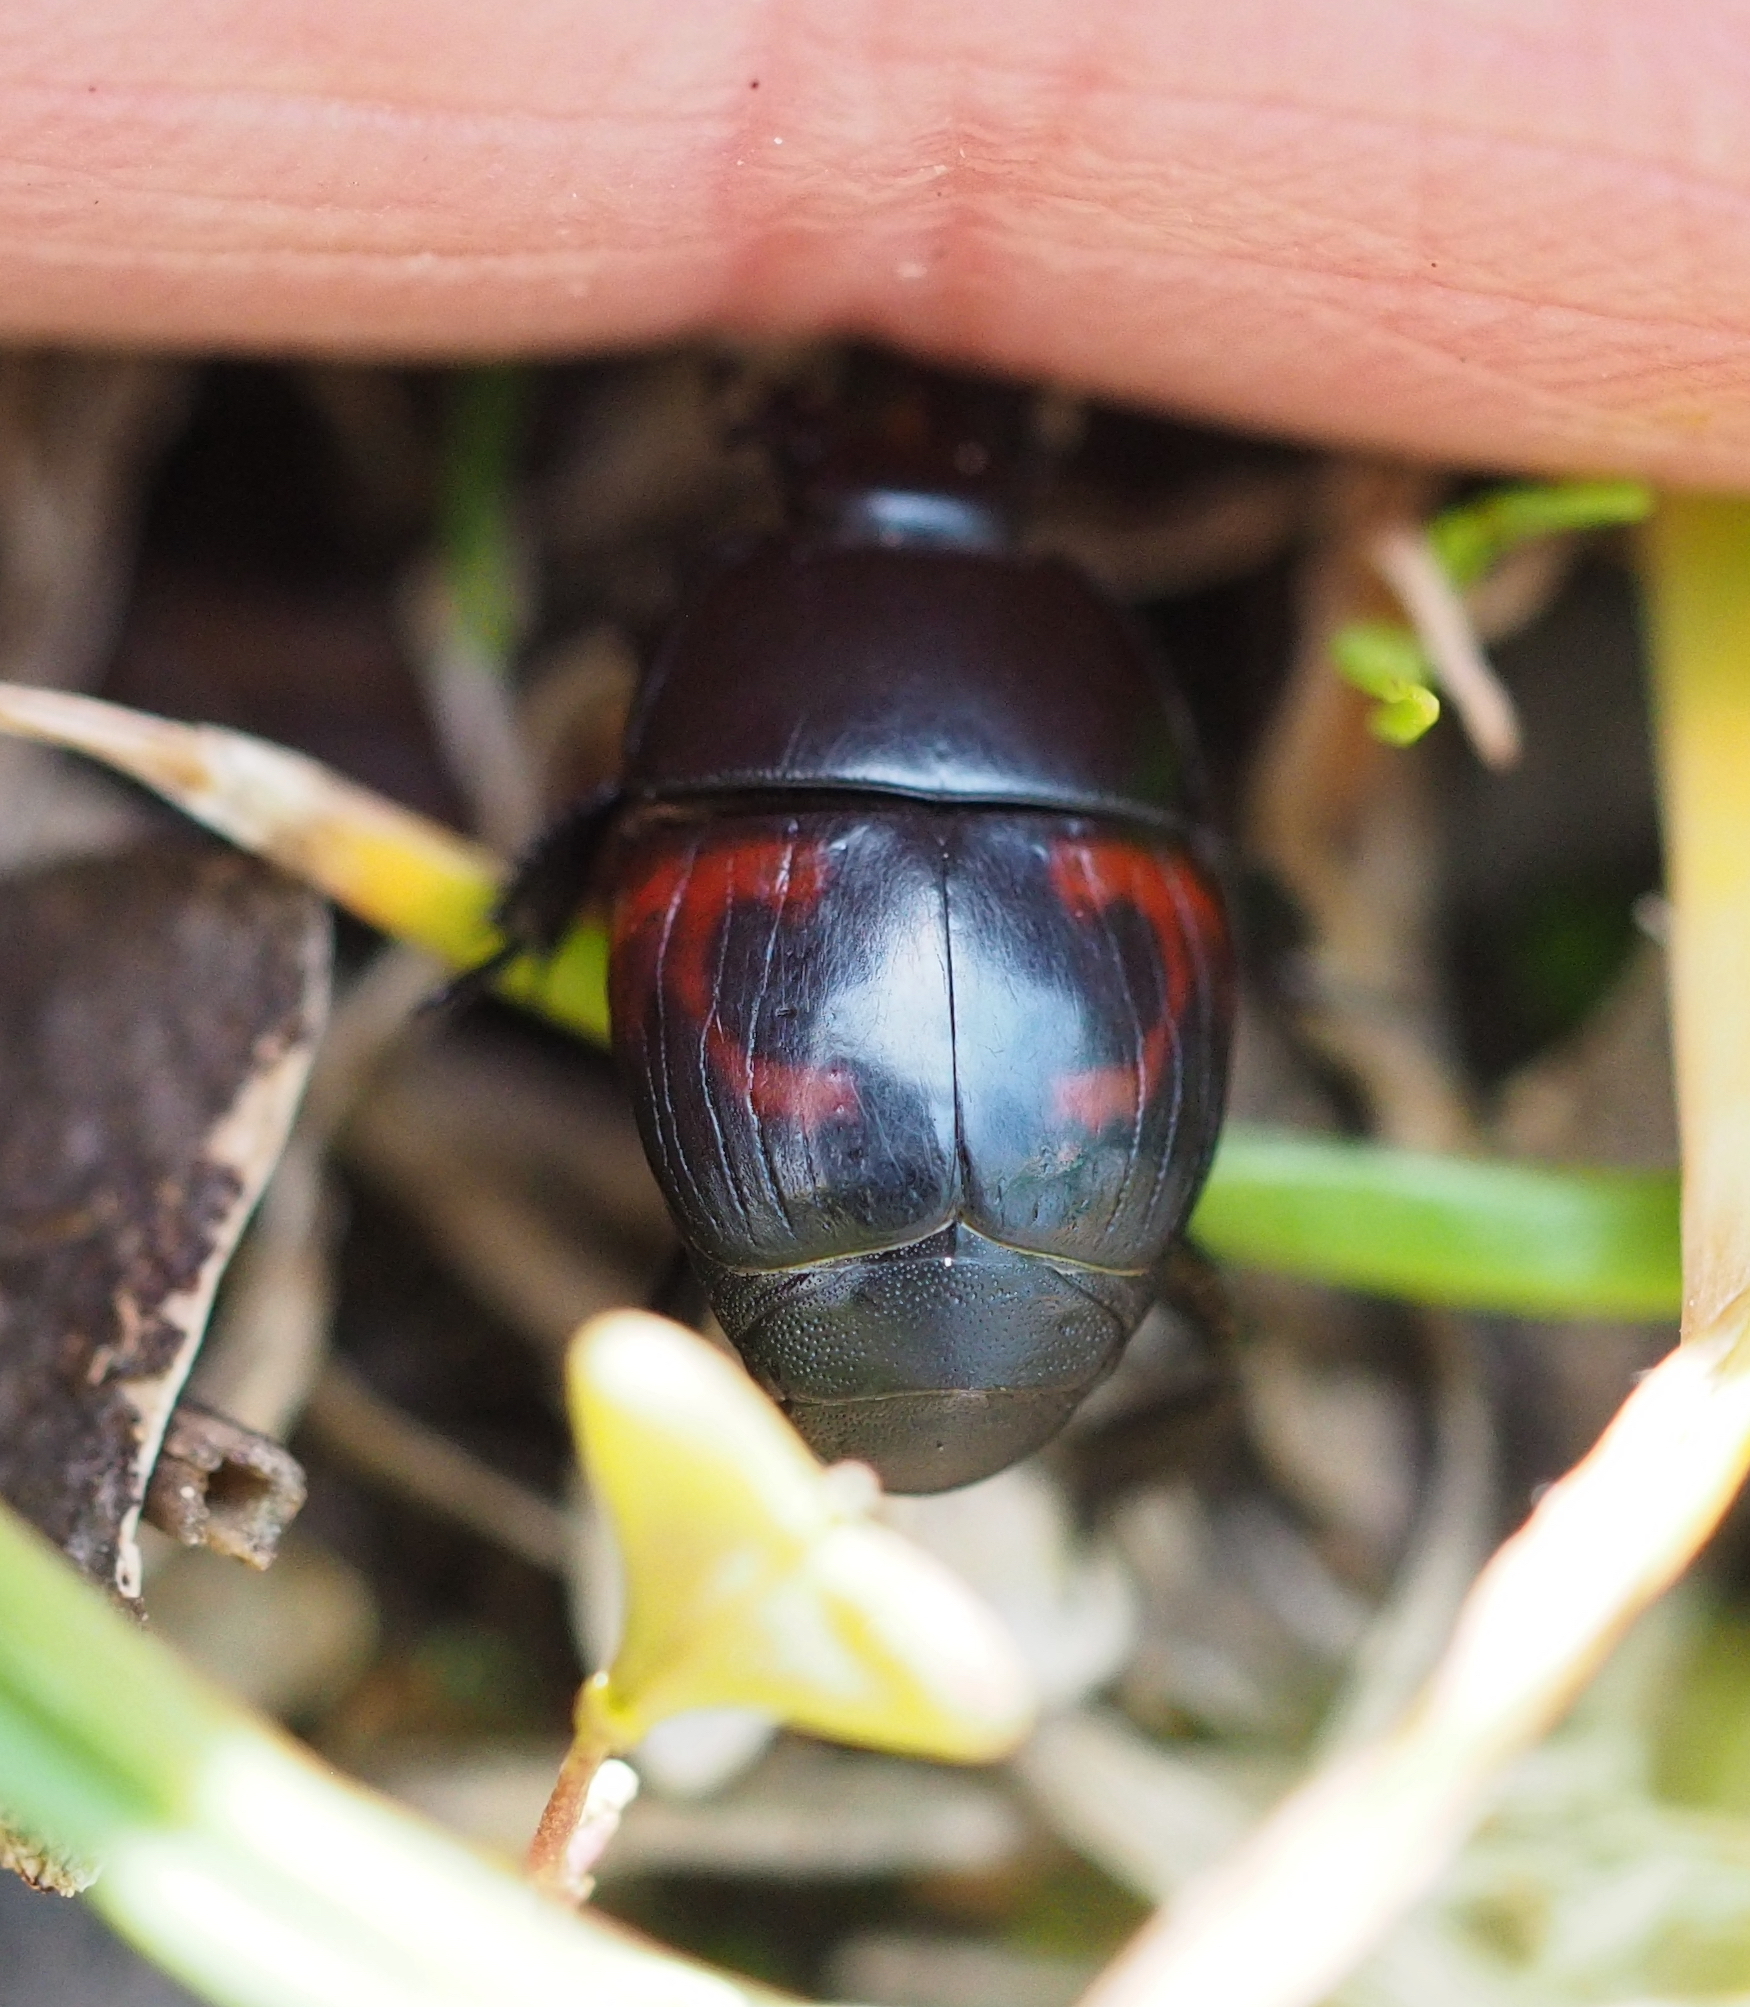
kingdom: Animalia
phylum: Arthropoda
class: Insecta
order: Coleoptera
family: Histeridae
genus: Hister
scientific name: Hister quadrimaculatus
